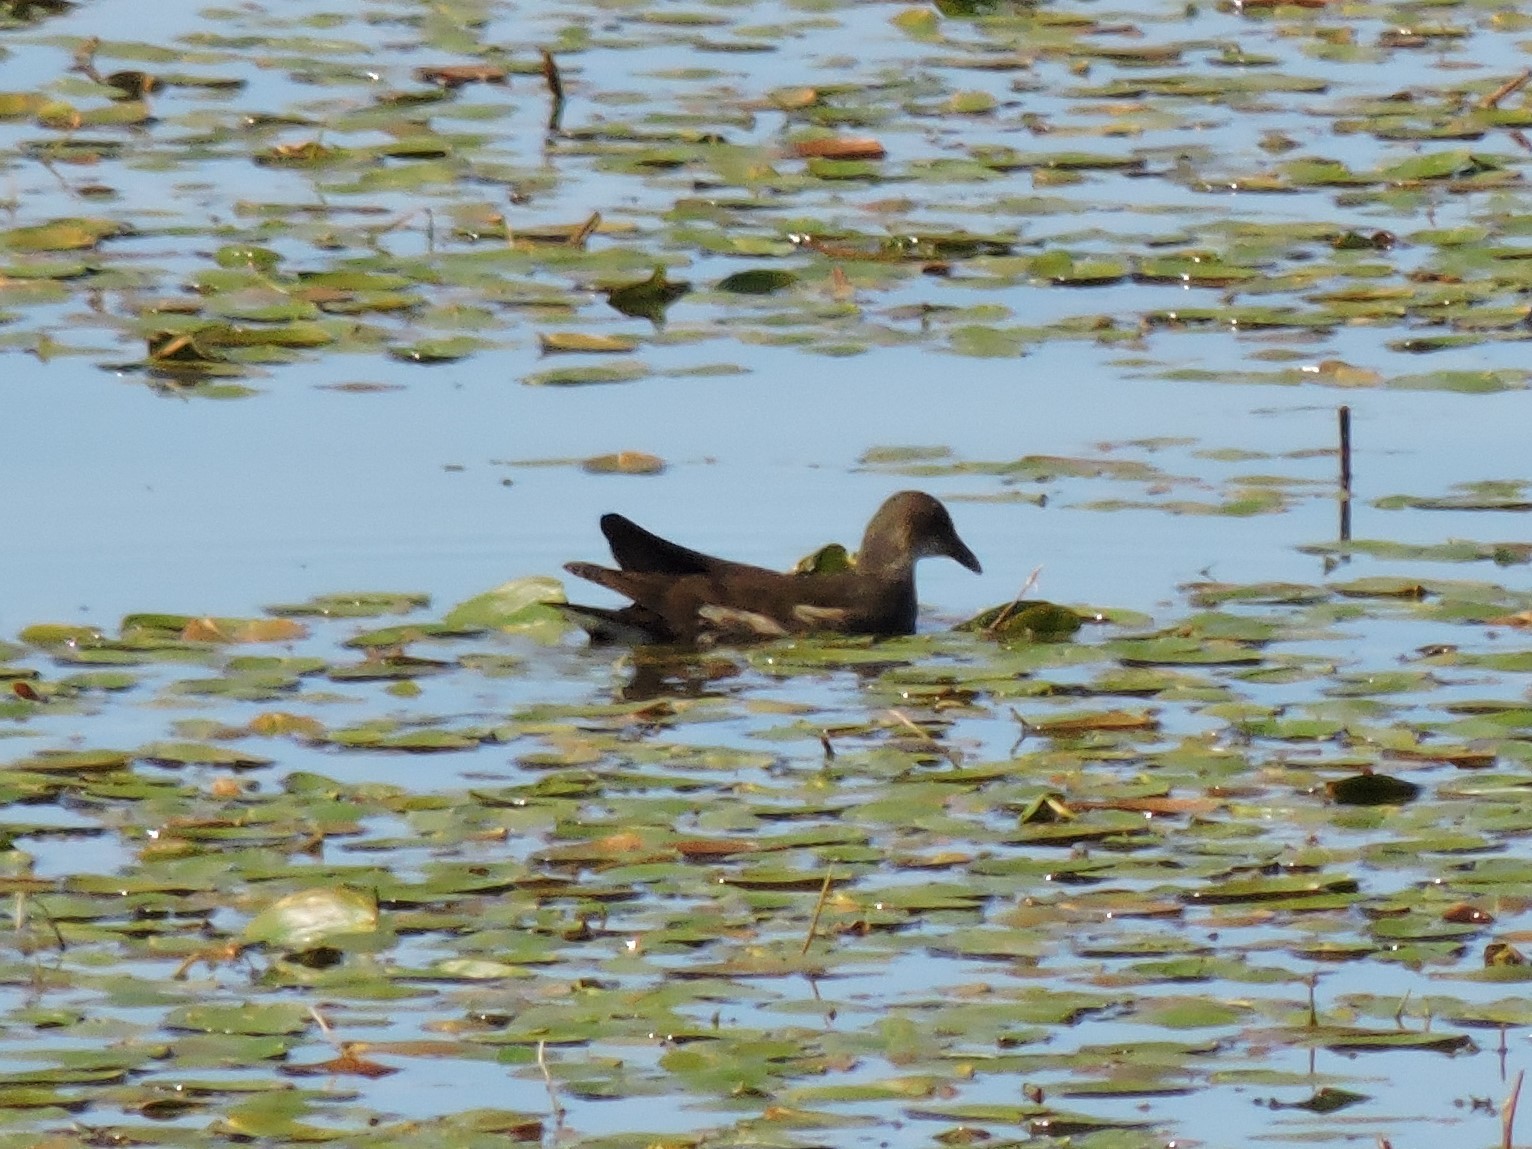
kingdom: Animalia
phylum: Chordata
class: Aves
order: Gruiformes
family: Rallidae
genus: Gallinula
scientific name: Gallinula chloropus
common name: Common moorhen
